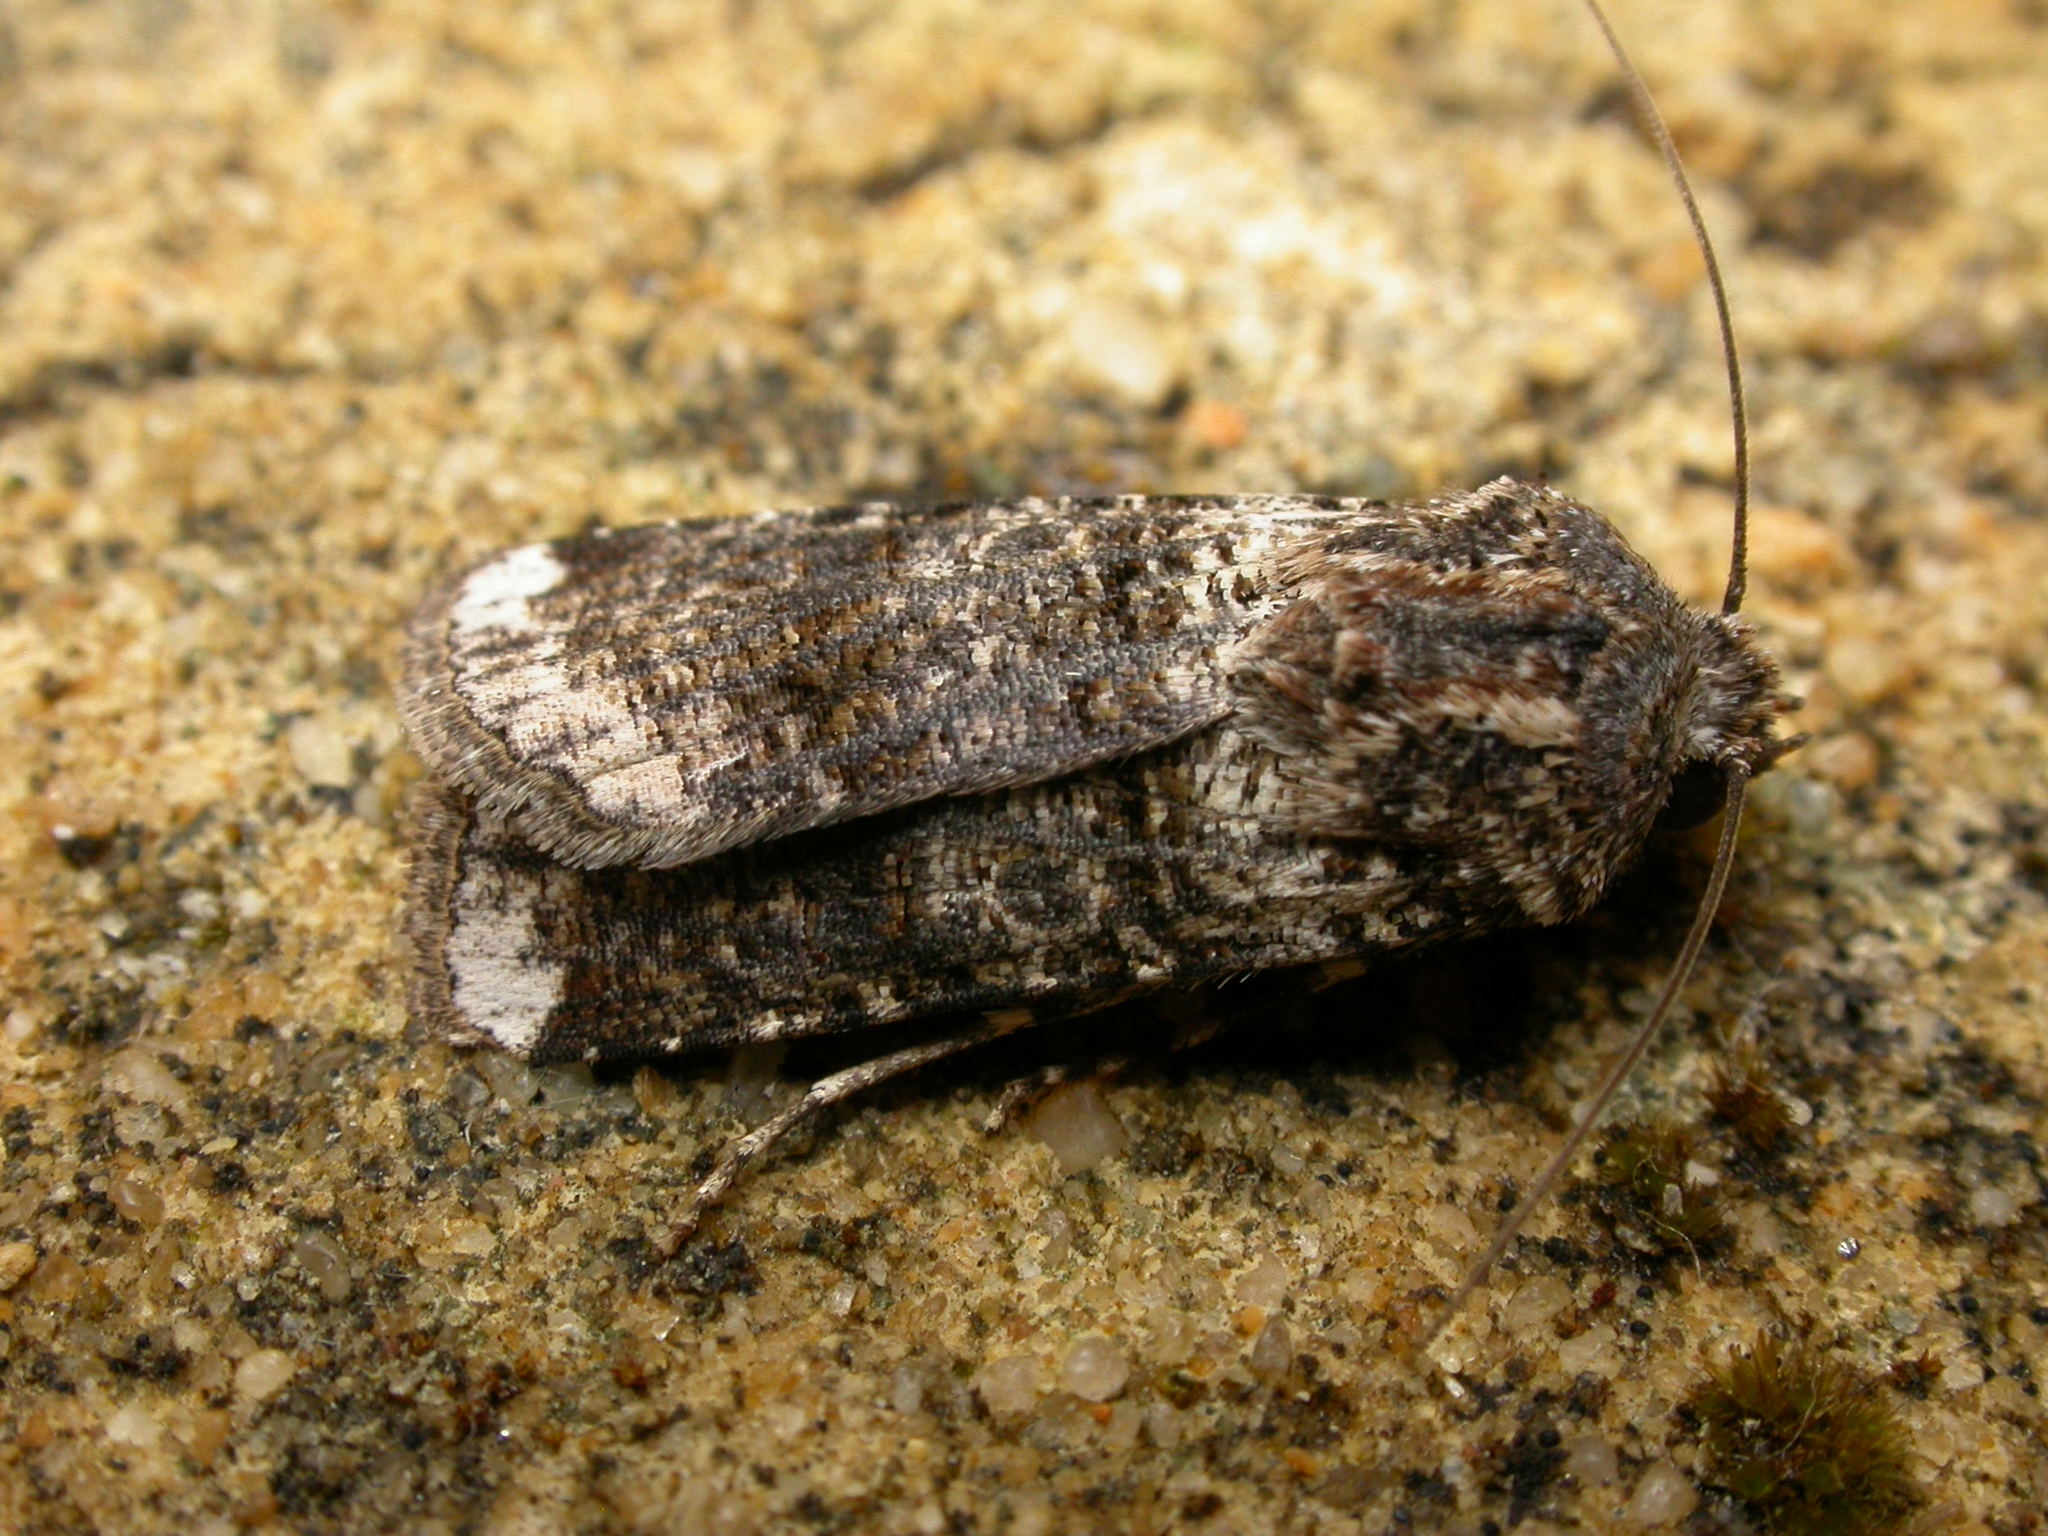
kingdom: Animalia
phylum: Arthropoda
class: Insecta
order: Lepidoptera
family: Noctuidae
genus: Agrotis
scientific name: Agrotis porphyricollis
